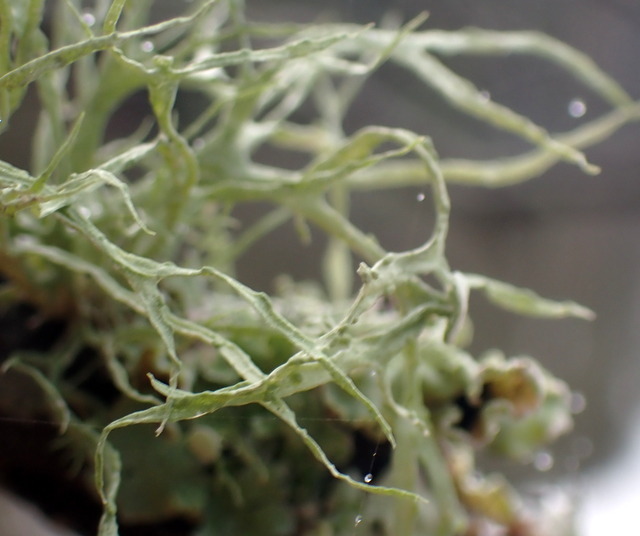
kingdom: Fungi
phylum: Ascomycota
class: Lecanoromycetes
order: Lecanorales
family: Ramalinaceae
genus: Ramalina
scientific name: Ramalina stenospora
